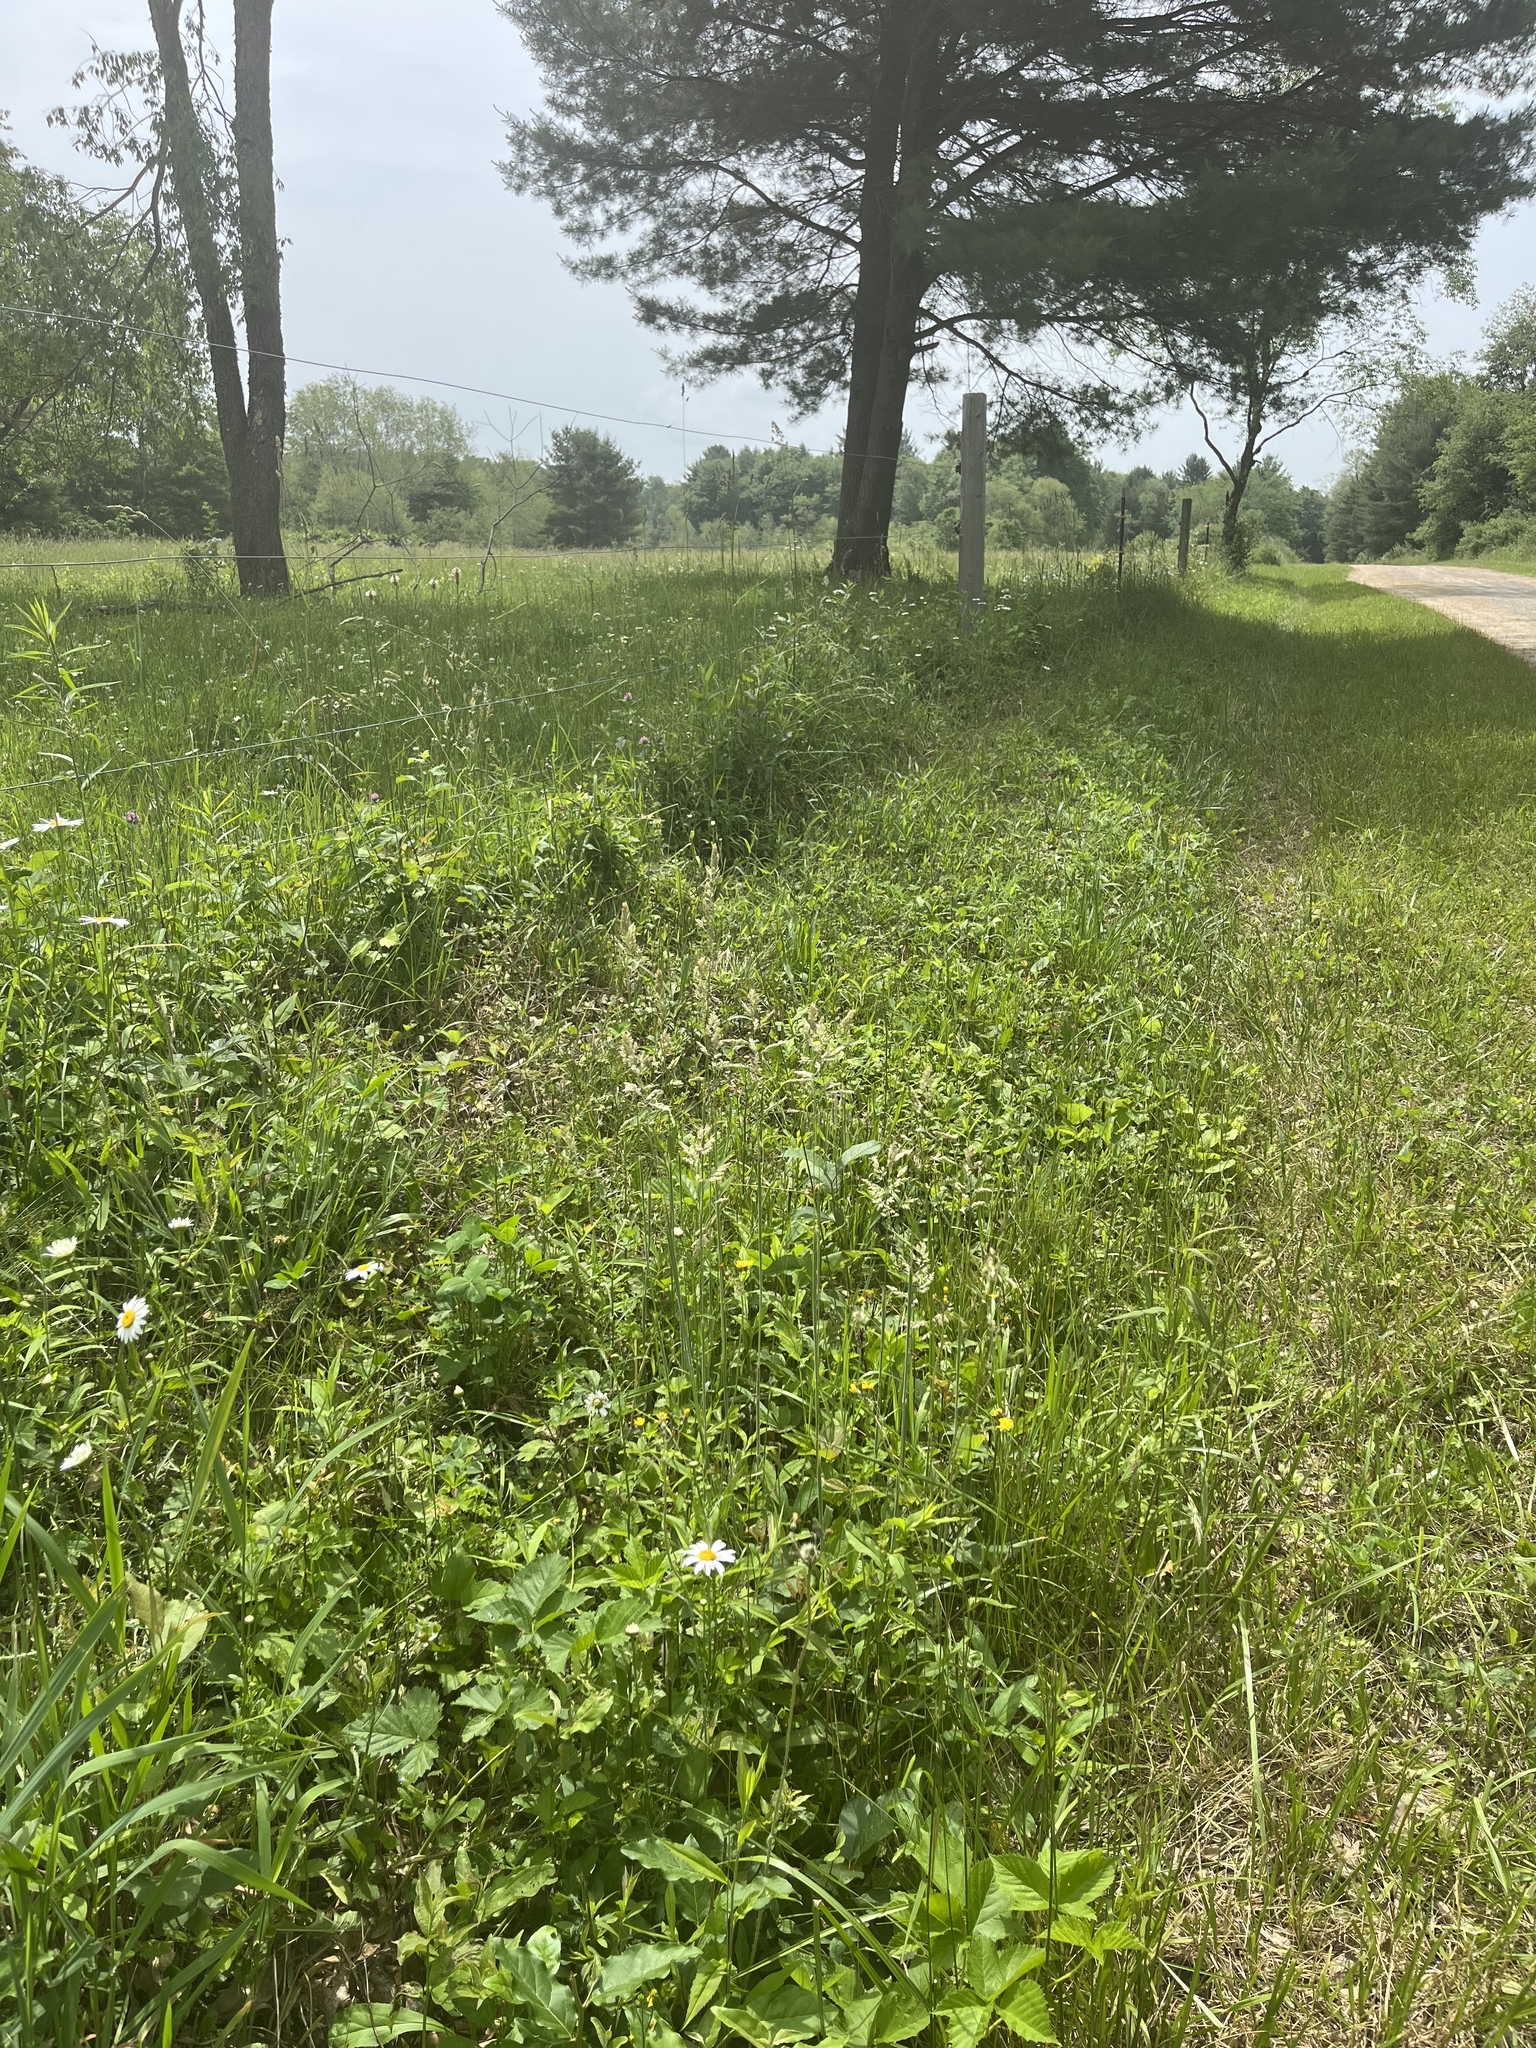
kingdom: Plantae
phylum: Tracheophyta
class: Magnoliopsida
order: Gentianales
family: Gentianaceae
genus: Frasera
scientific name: Frasera caroliniensis
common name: American columbo
